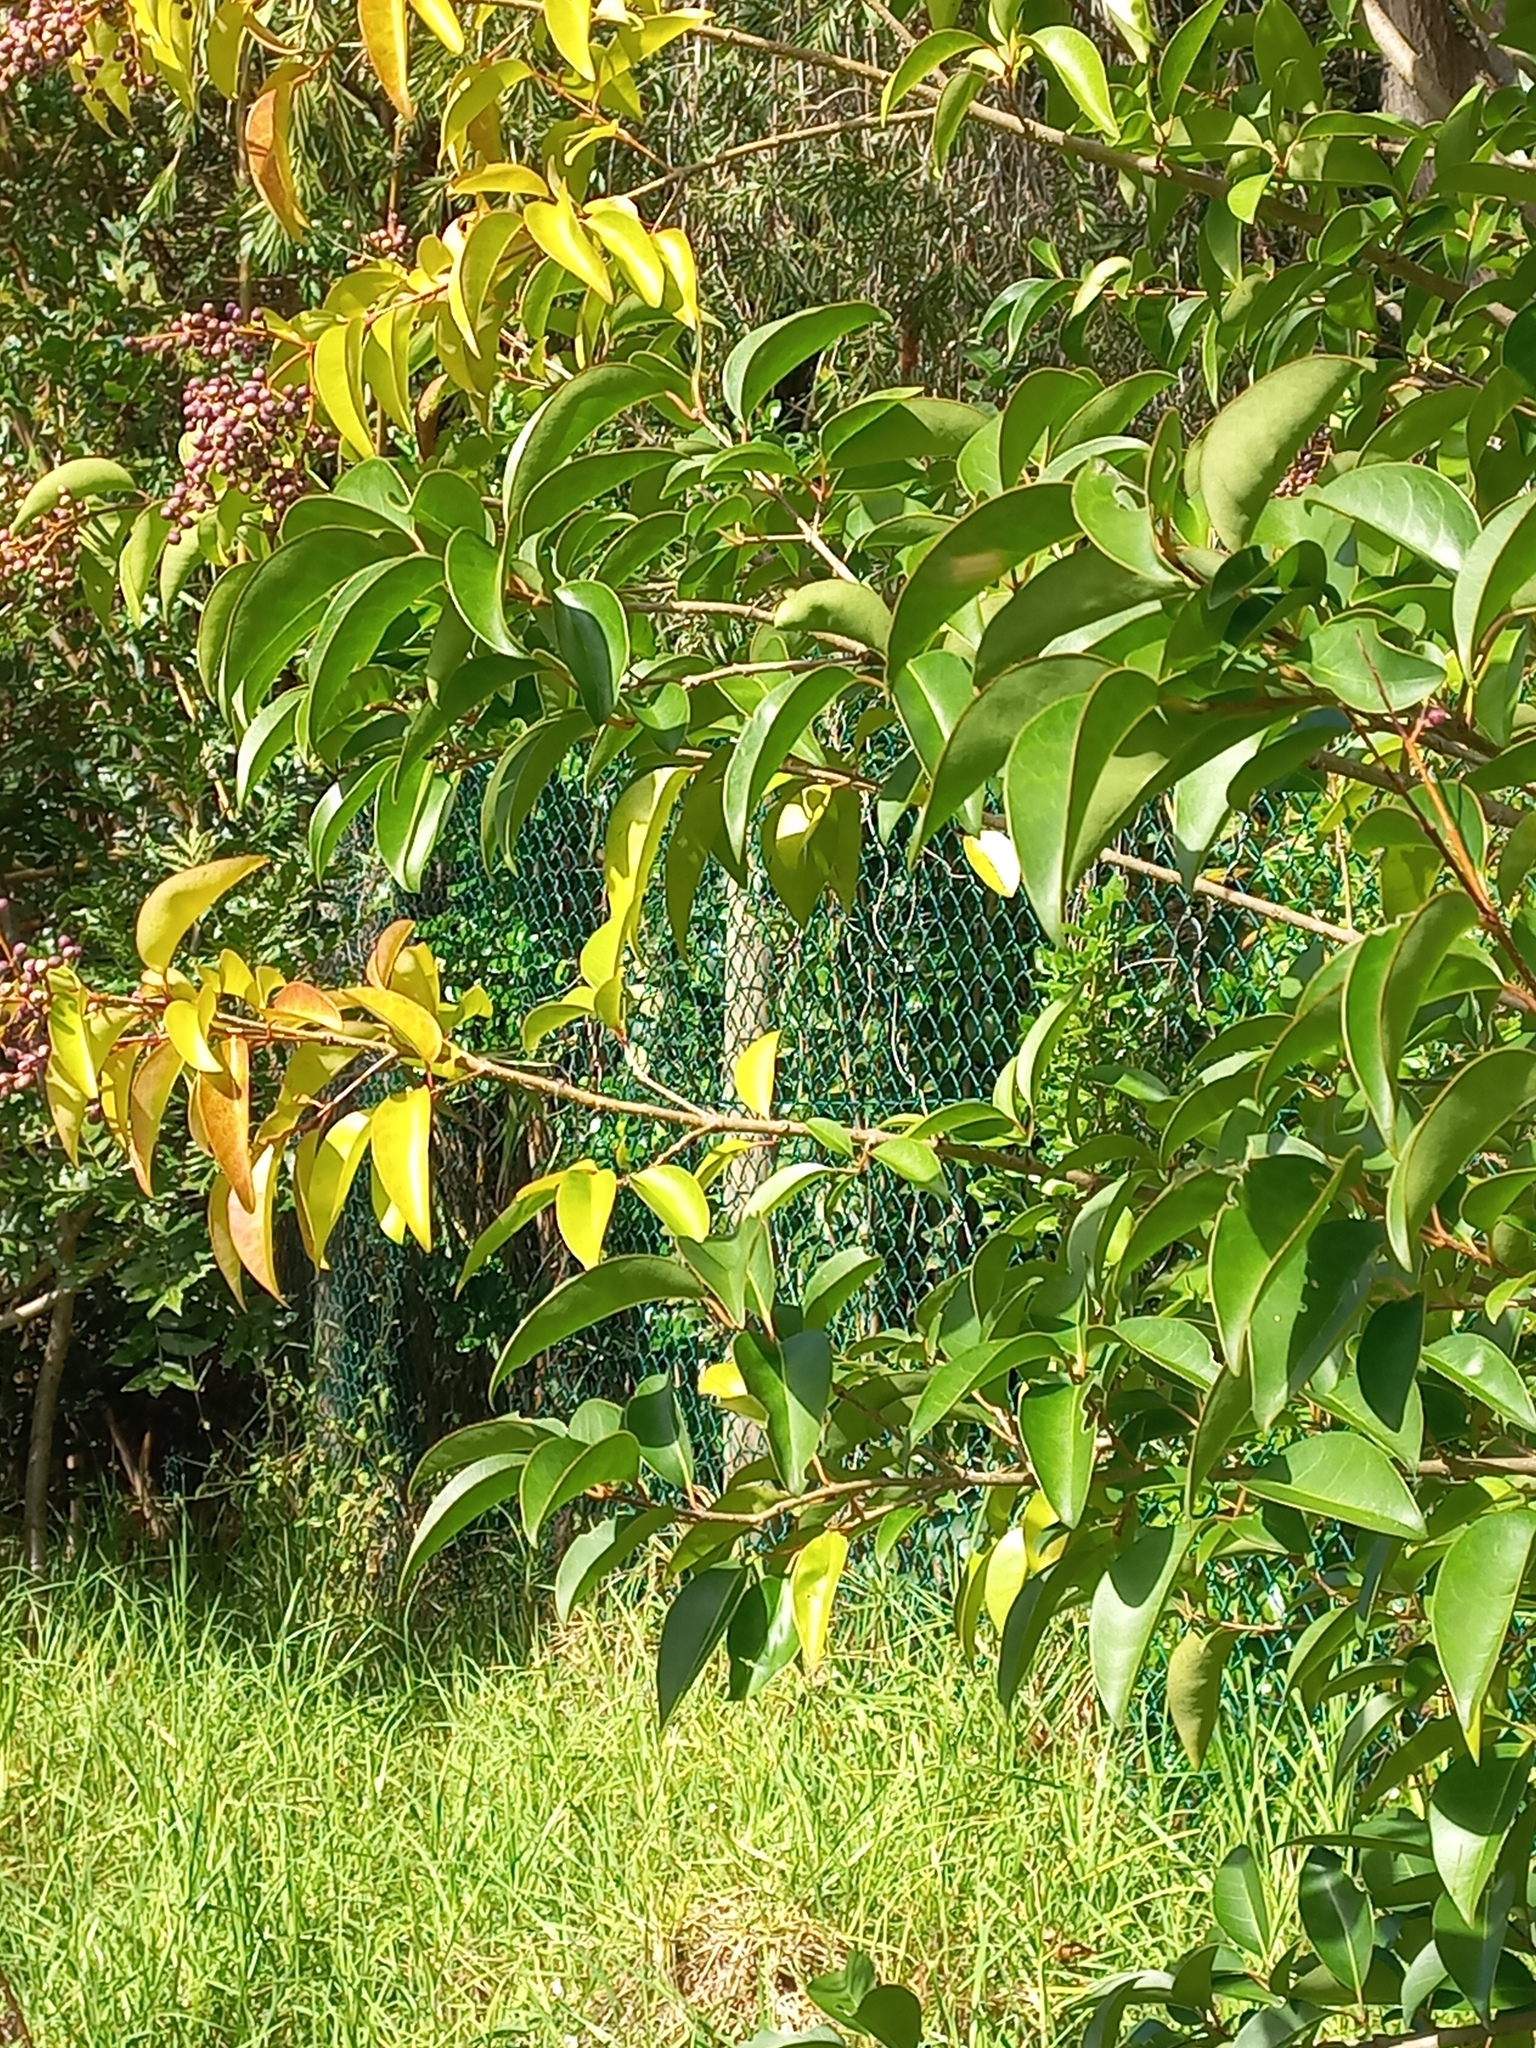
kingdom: Plantae
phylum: Tracheophyta
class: Magnoliopsida
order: Lamiales
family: Oleaceae
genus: Ligustrum
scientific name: Ligustrum lucidum
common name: Glossy privet
